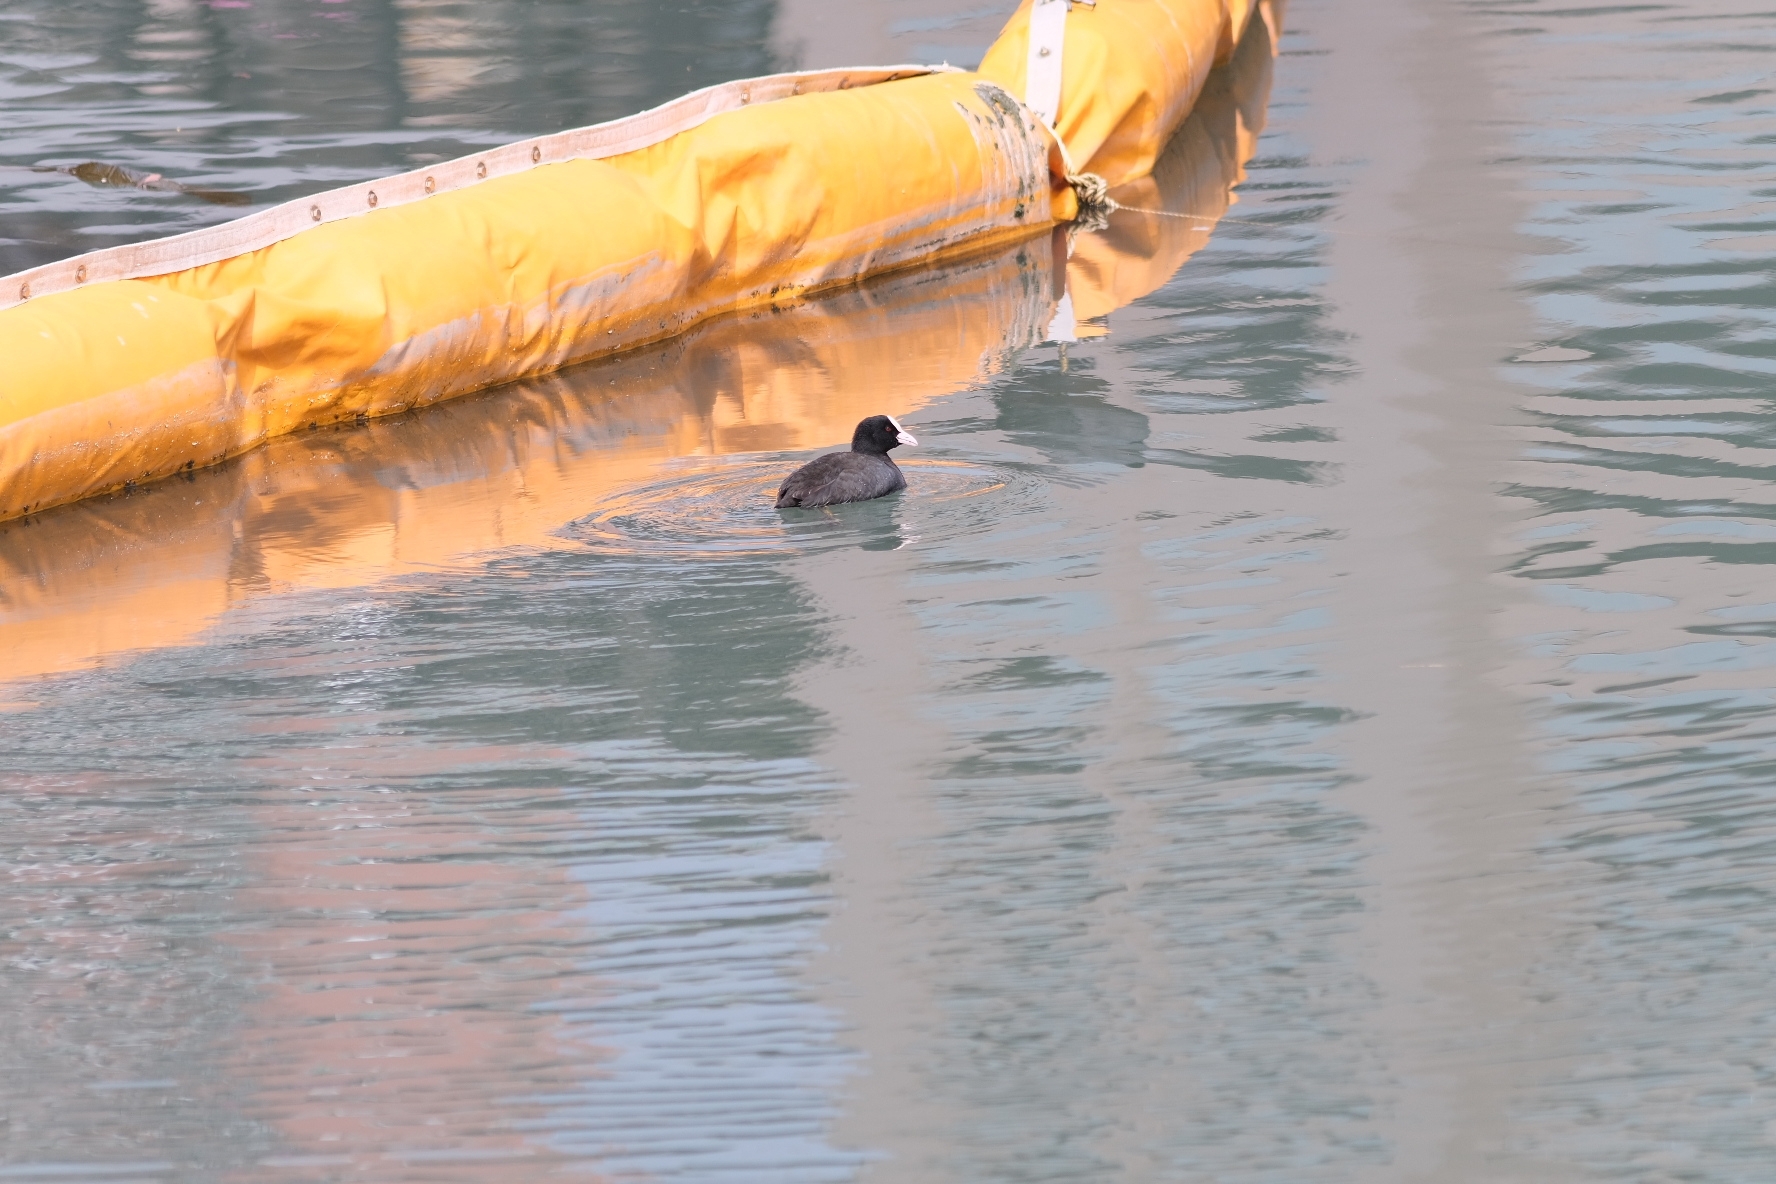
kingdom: Animalia
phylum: Chordata
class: Aves
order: Gruiformes
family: Rallidae
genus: Fulica
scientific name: Fulica atra
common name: Eurasian coot
